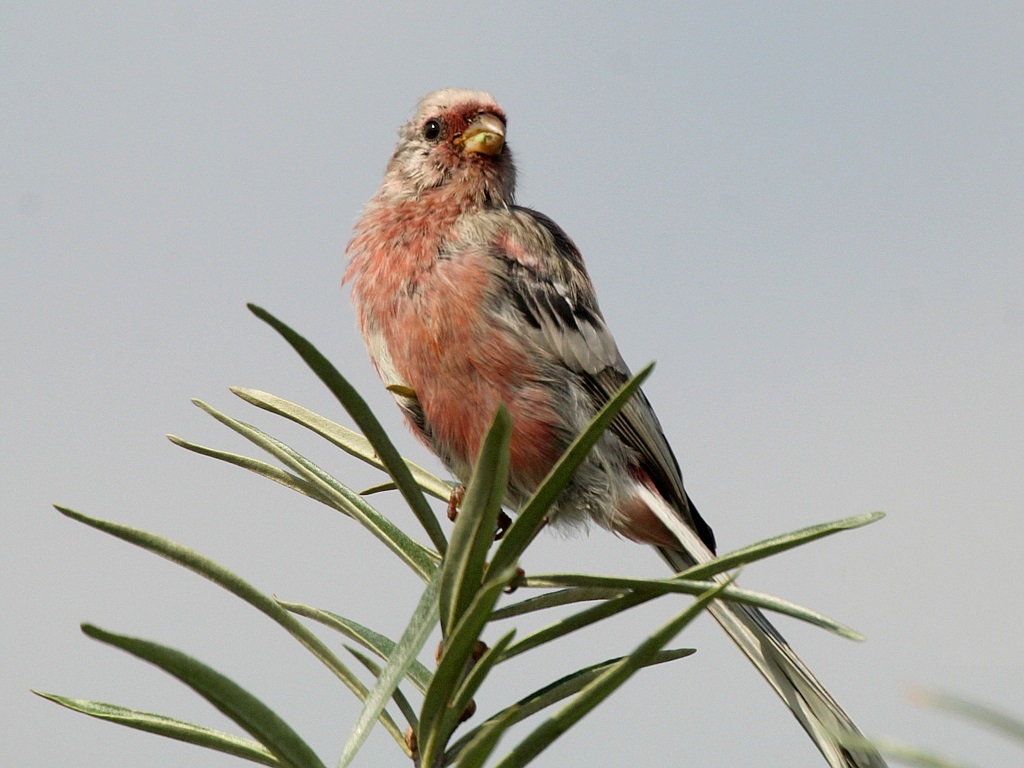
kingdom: Animalia
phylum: Chordata
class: Aves
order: Passeriformes
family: Fringillidae
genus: Carpodacus
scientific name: Carpodacus sibiricus
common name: Long-tailed rosefinch
